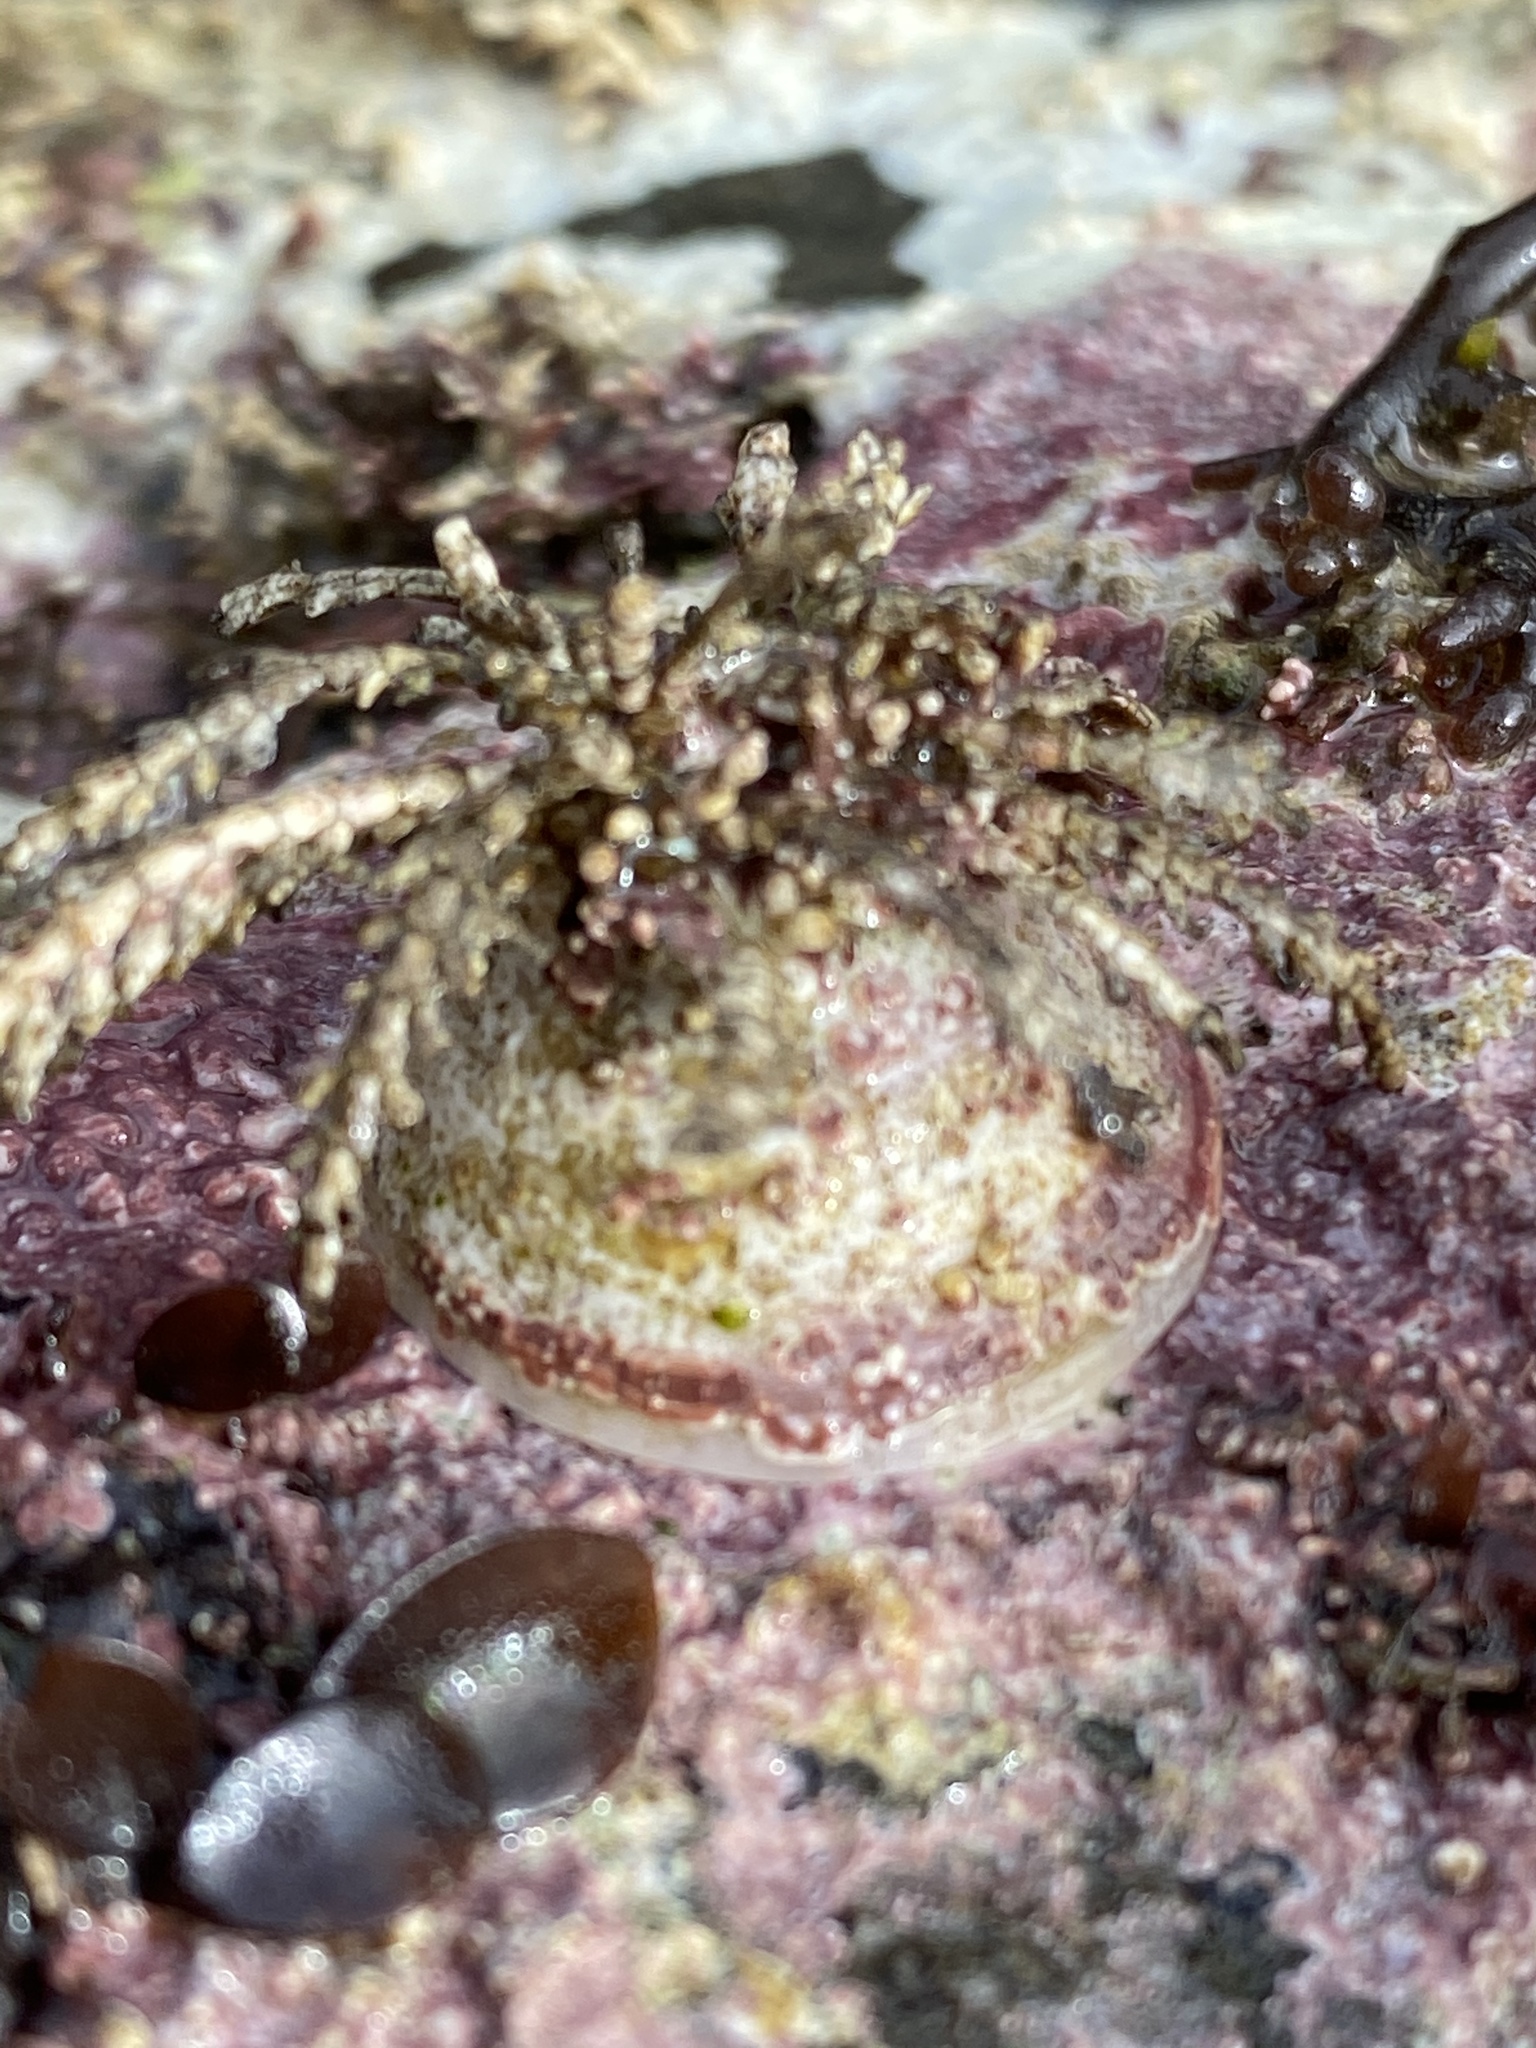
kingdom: Animalia
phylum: Mollusca
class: Gastropoda
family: Acmaeidae
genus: Acmaea
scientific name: Acmaea mitra
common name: Pacific white cap limpet
